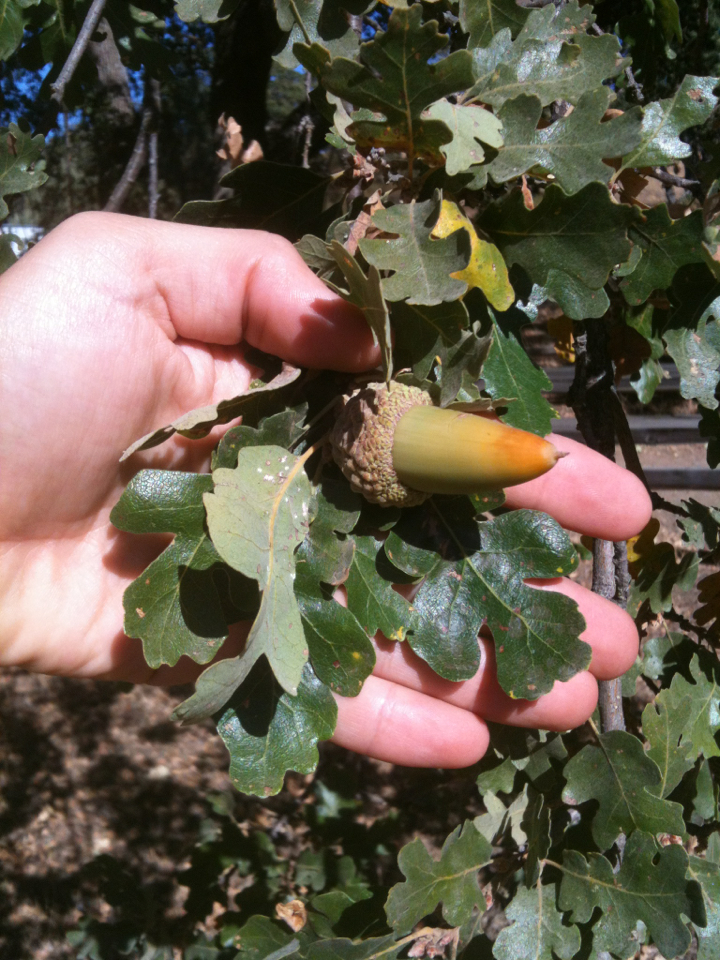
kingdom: Plantae
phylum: Tracheophyta
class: Magnoliopsida
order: Fagales
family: Fagaceae
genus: Quercus
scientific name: Quercus lobata
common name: Valley oak
